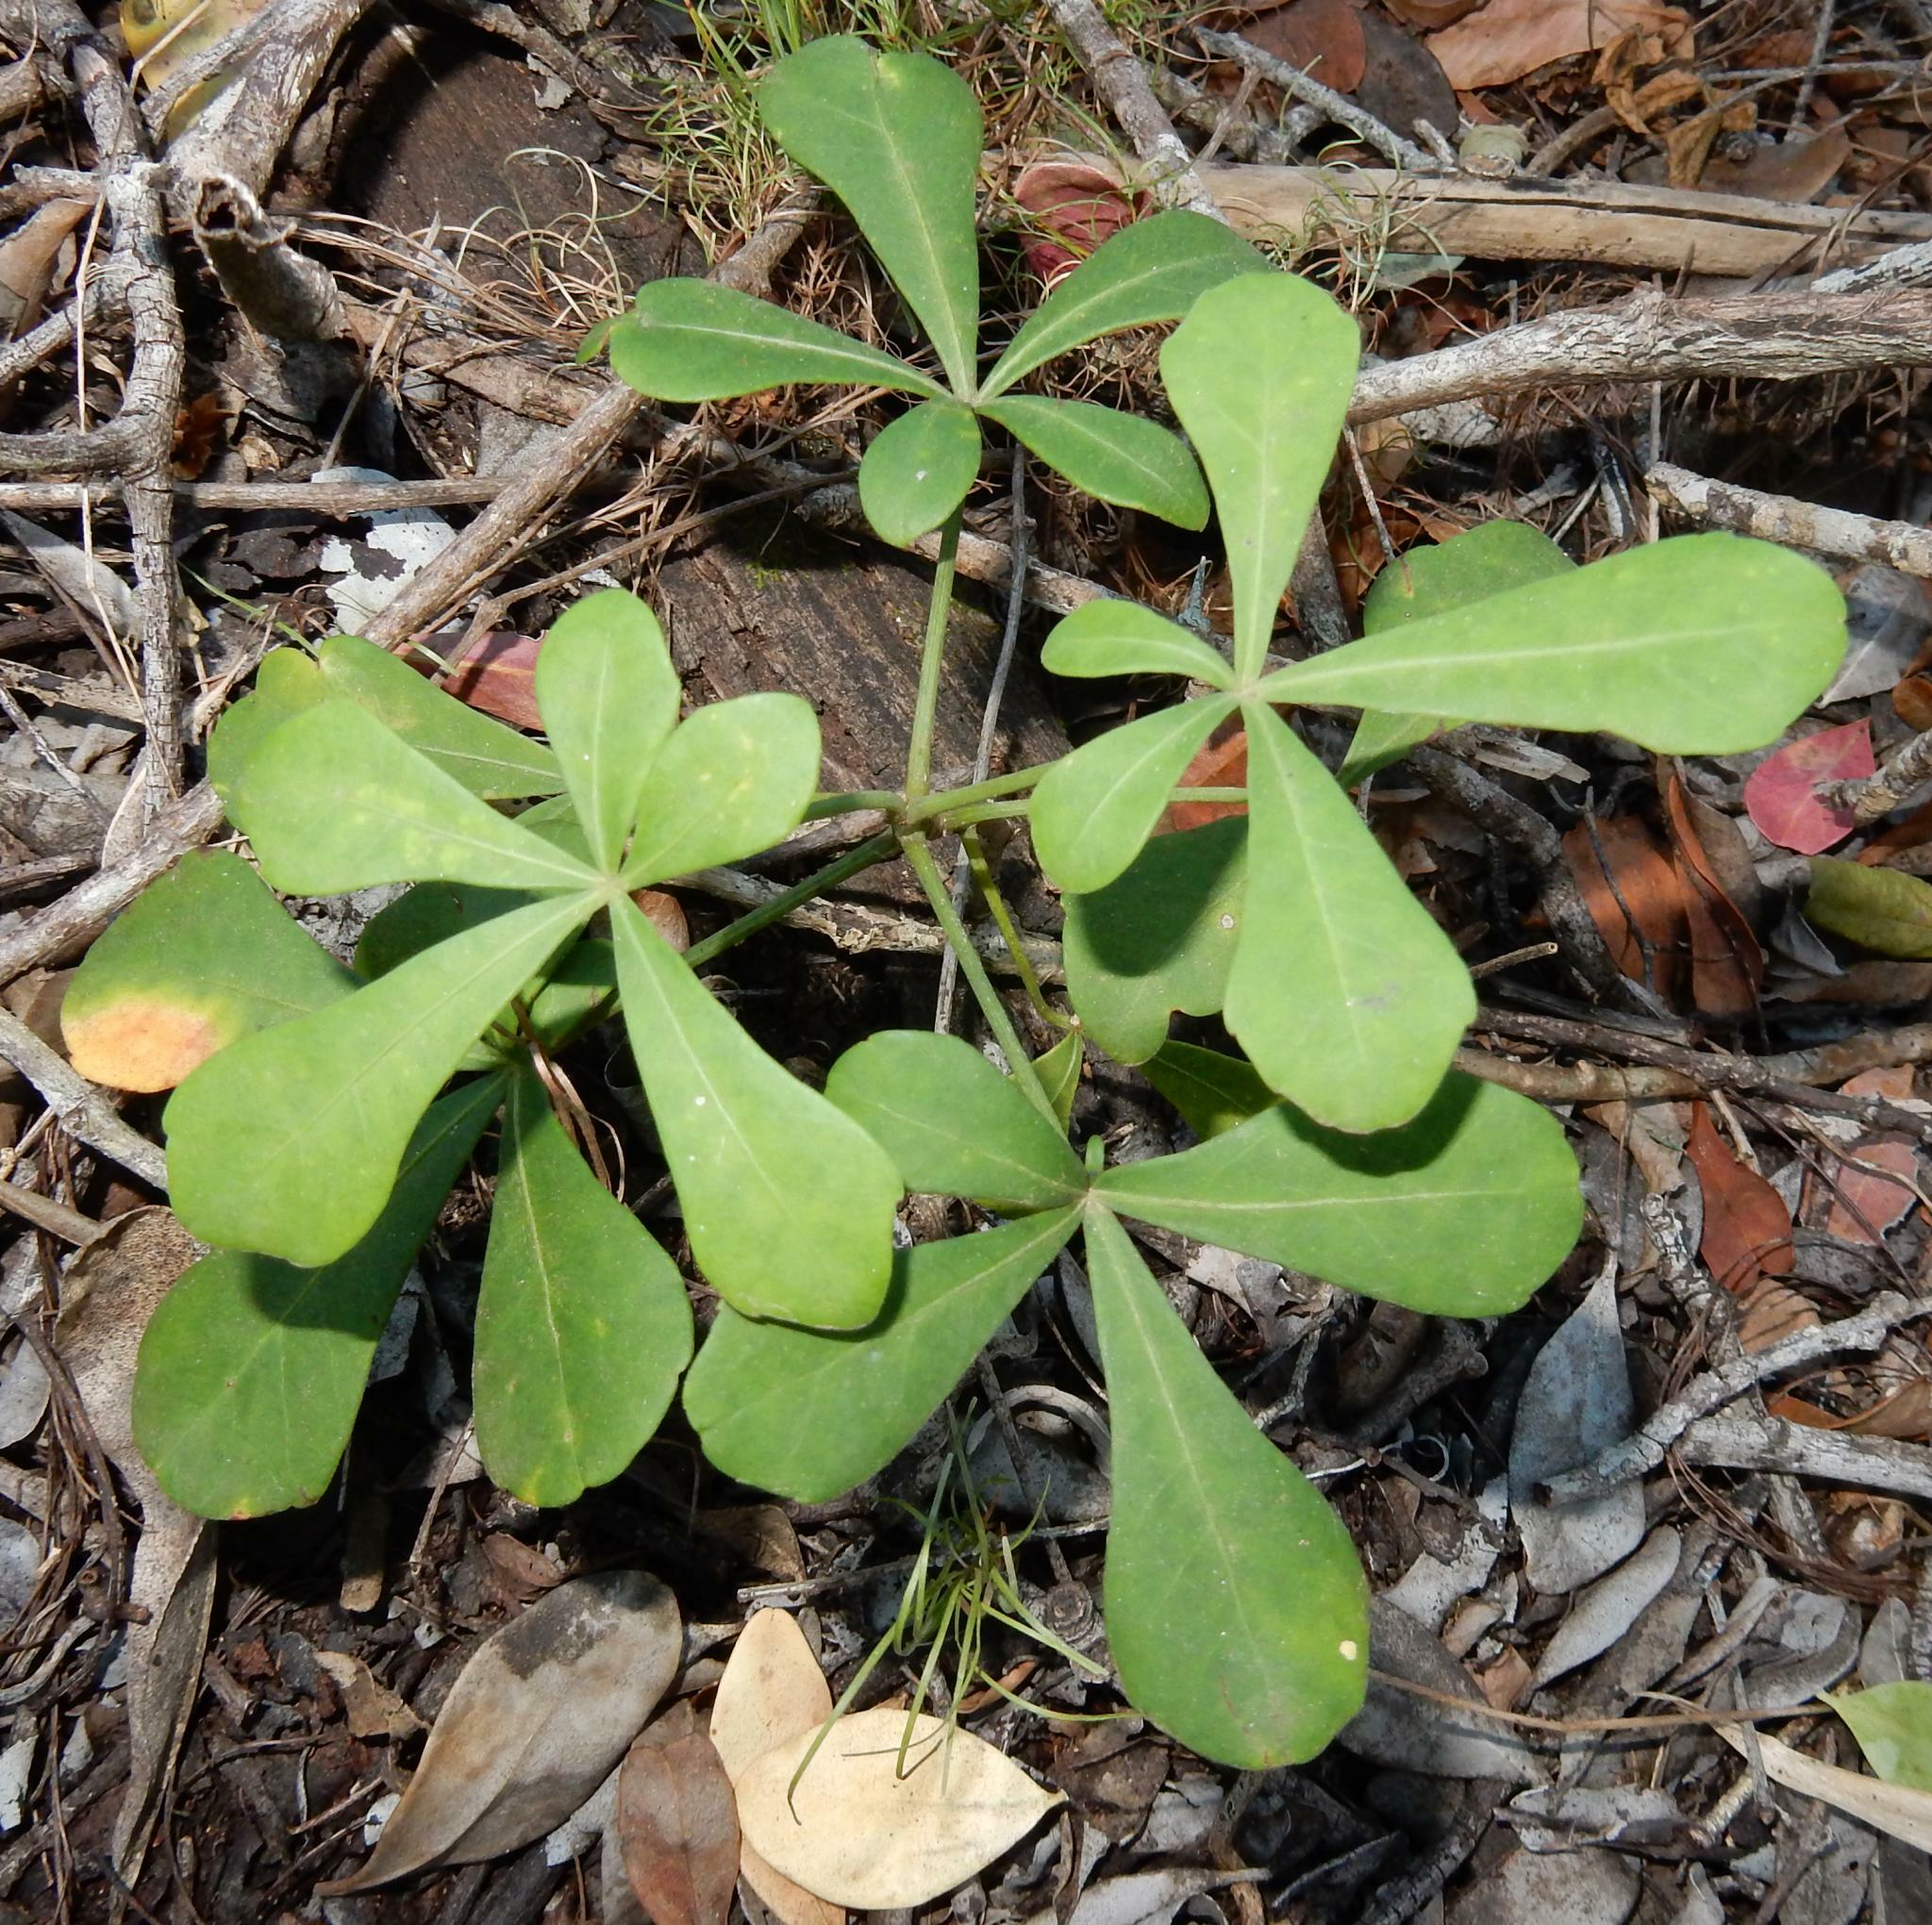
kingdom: Plantae
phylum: Tracheophyta
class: Magnoliopsida
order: Apiales
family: Araliaceae
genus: Cussonia
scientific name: Cussonia thyrsiflora
